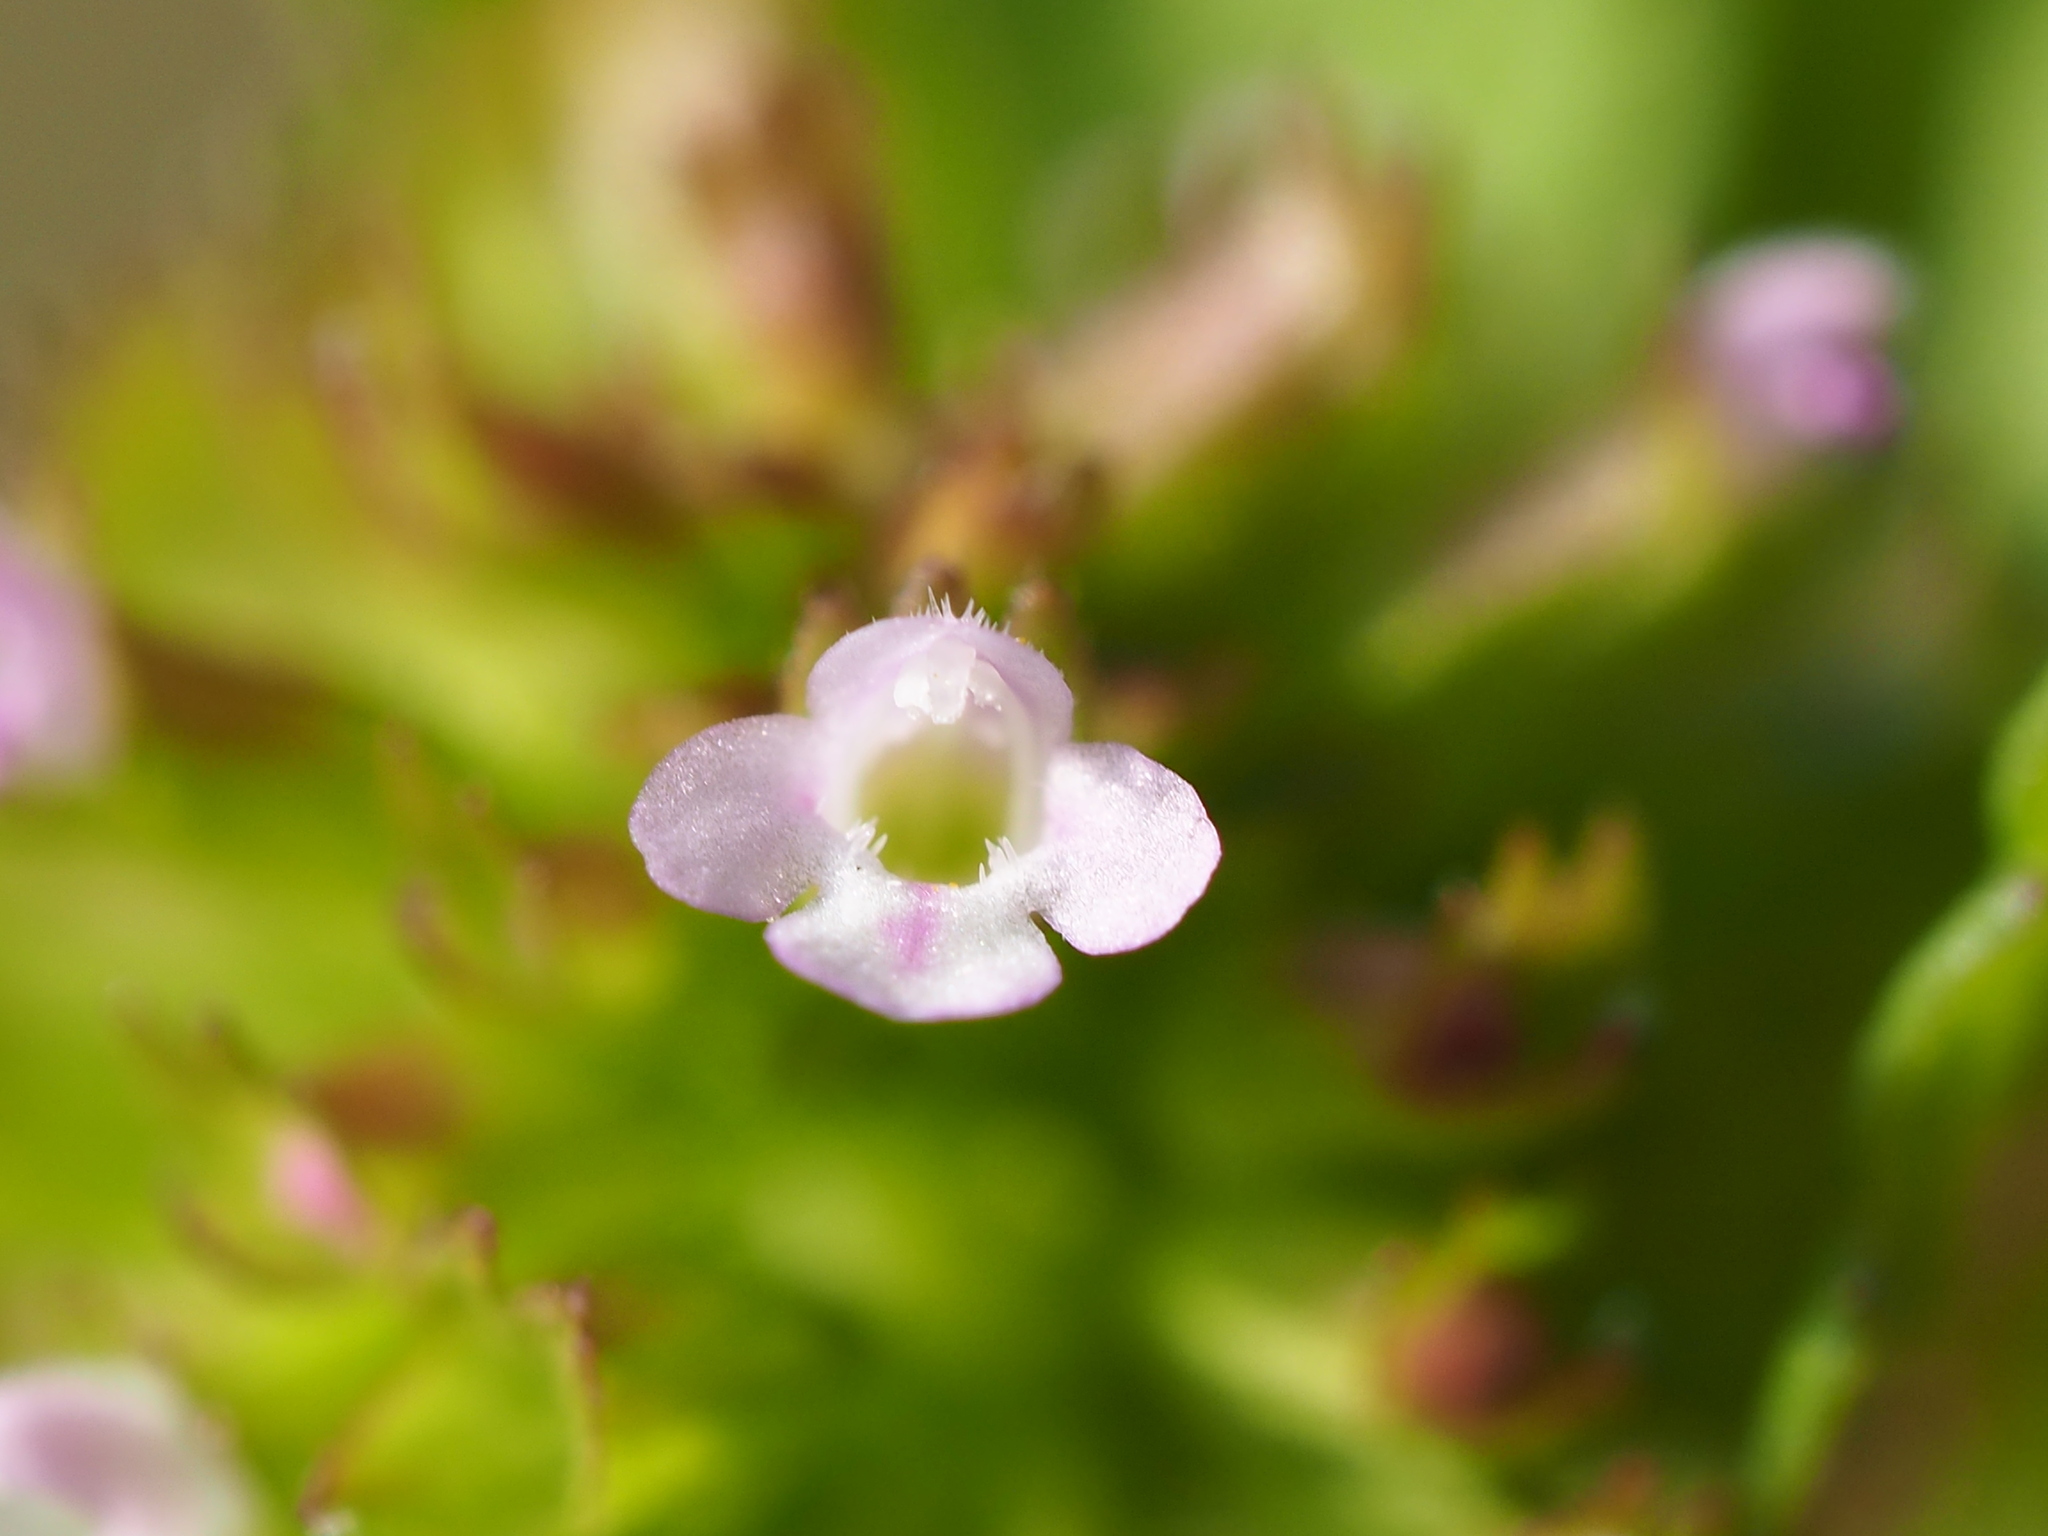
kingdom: Plantae
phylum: Tracheophyta
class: Magnoliopsida
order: Lamiales
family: Lamiaceae
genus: Clinopodium
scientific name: Clinopodium gracile
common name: Slender wild basil
